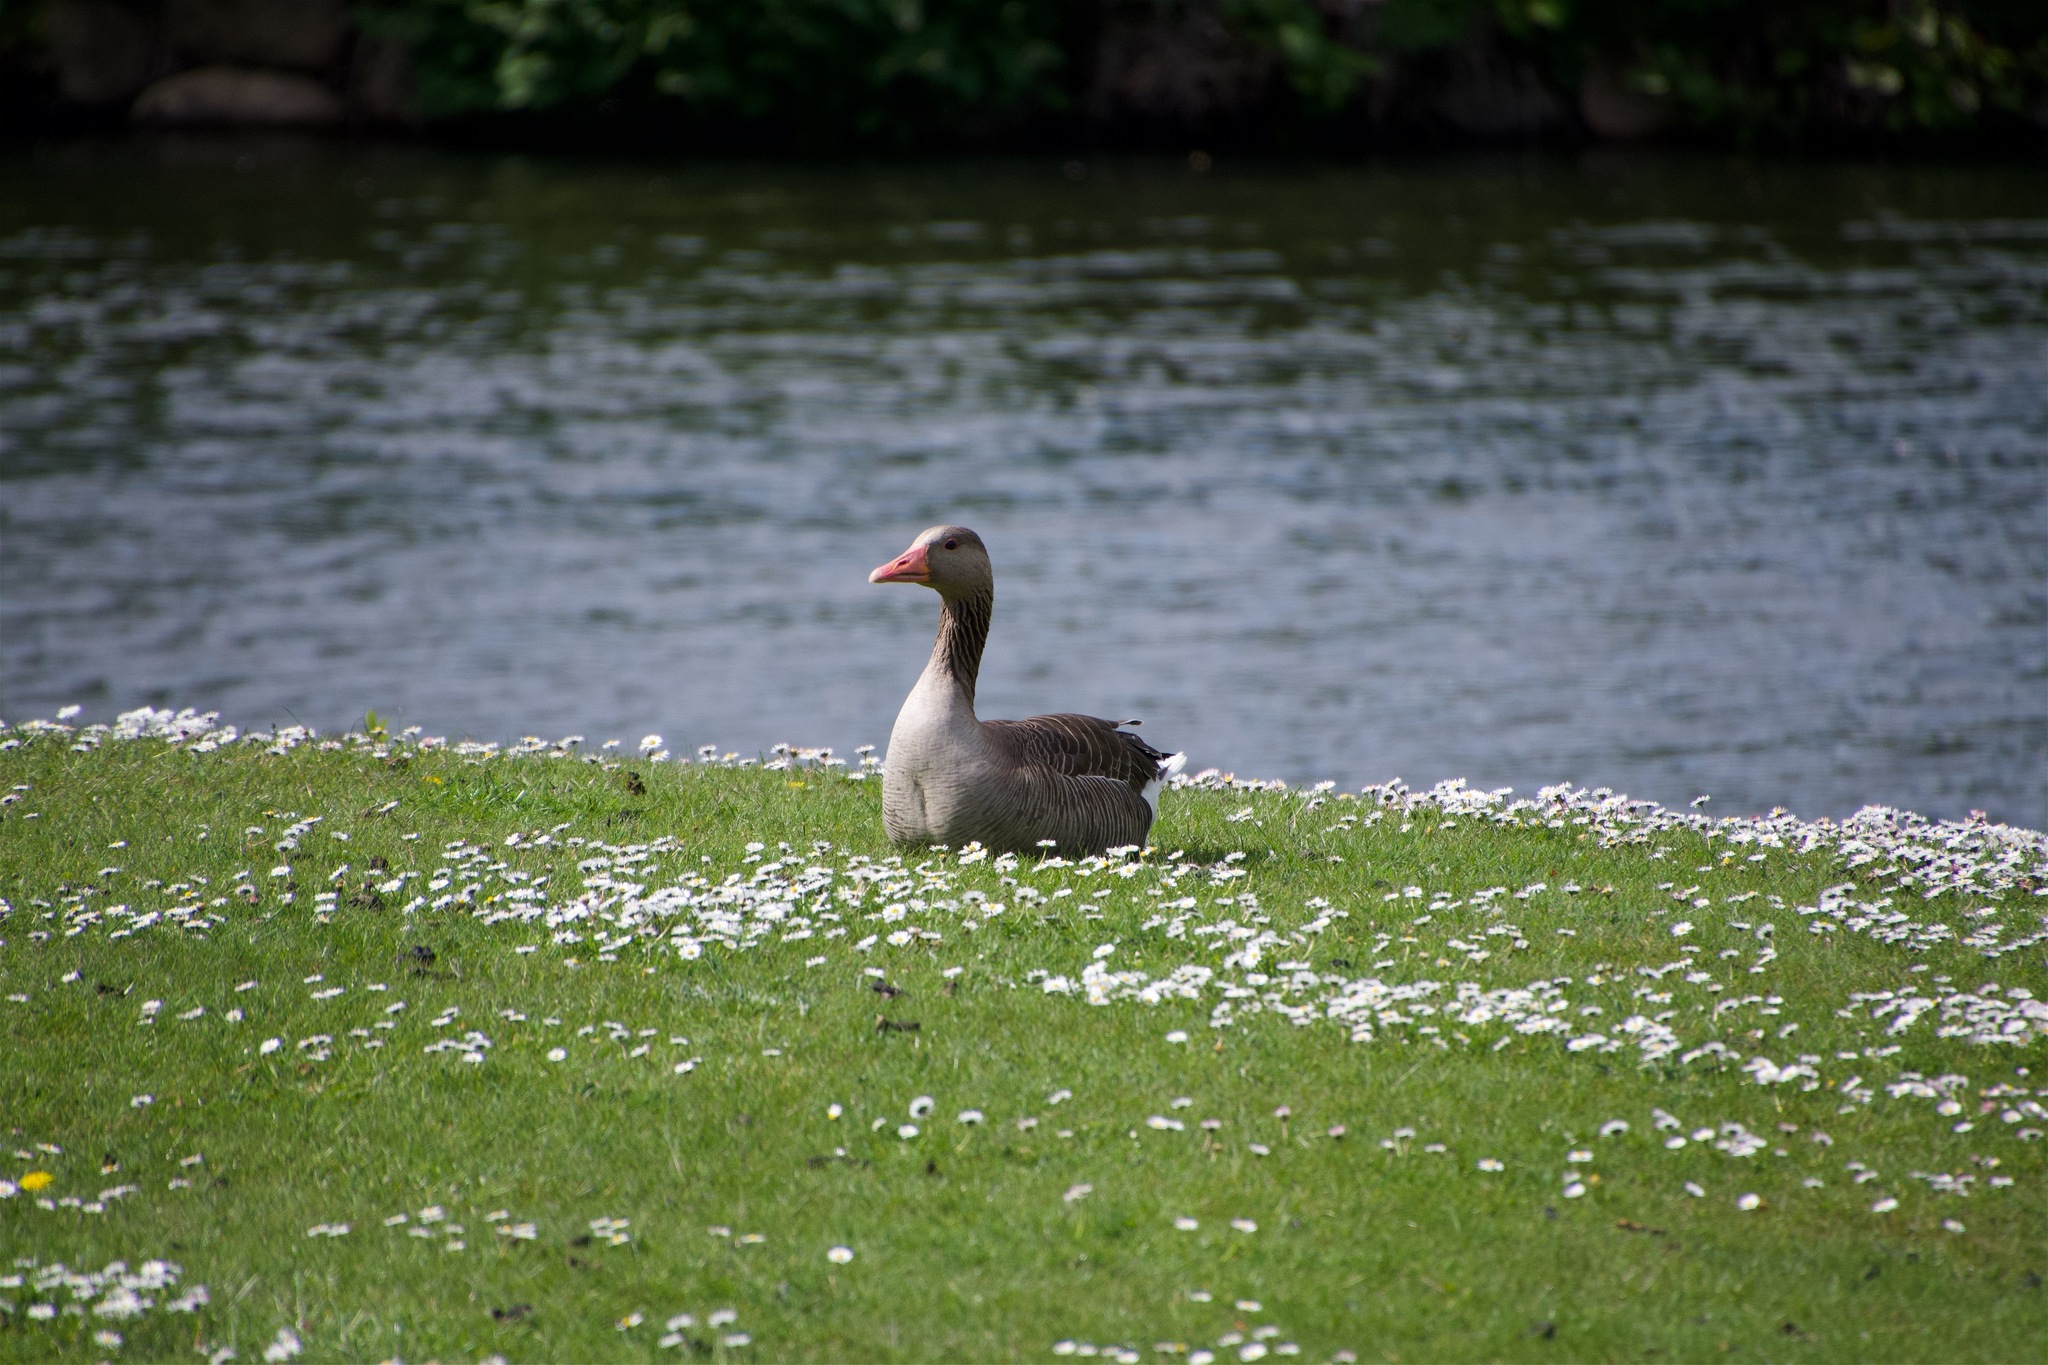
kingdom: Animalia
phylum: Chordata
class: Aves
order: Anseriformes
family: Anatidae
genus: Anser
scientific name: Anser anser
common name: Greylag goose
